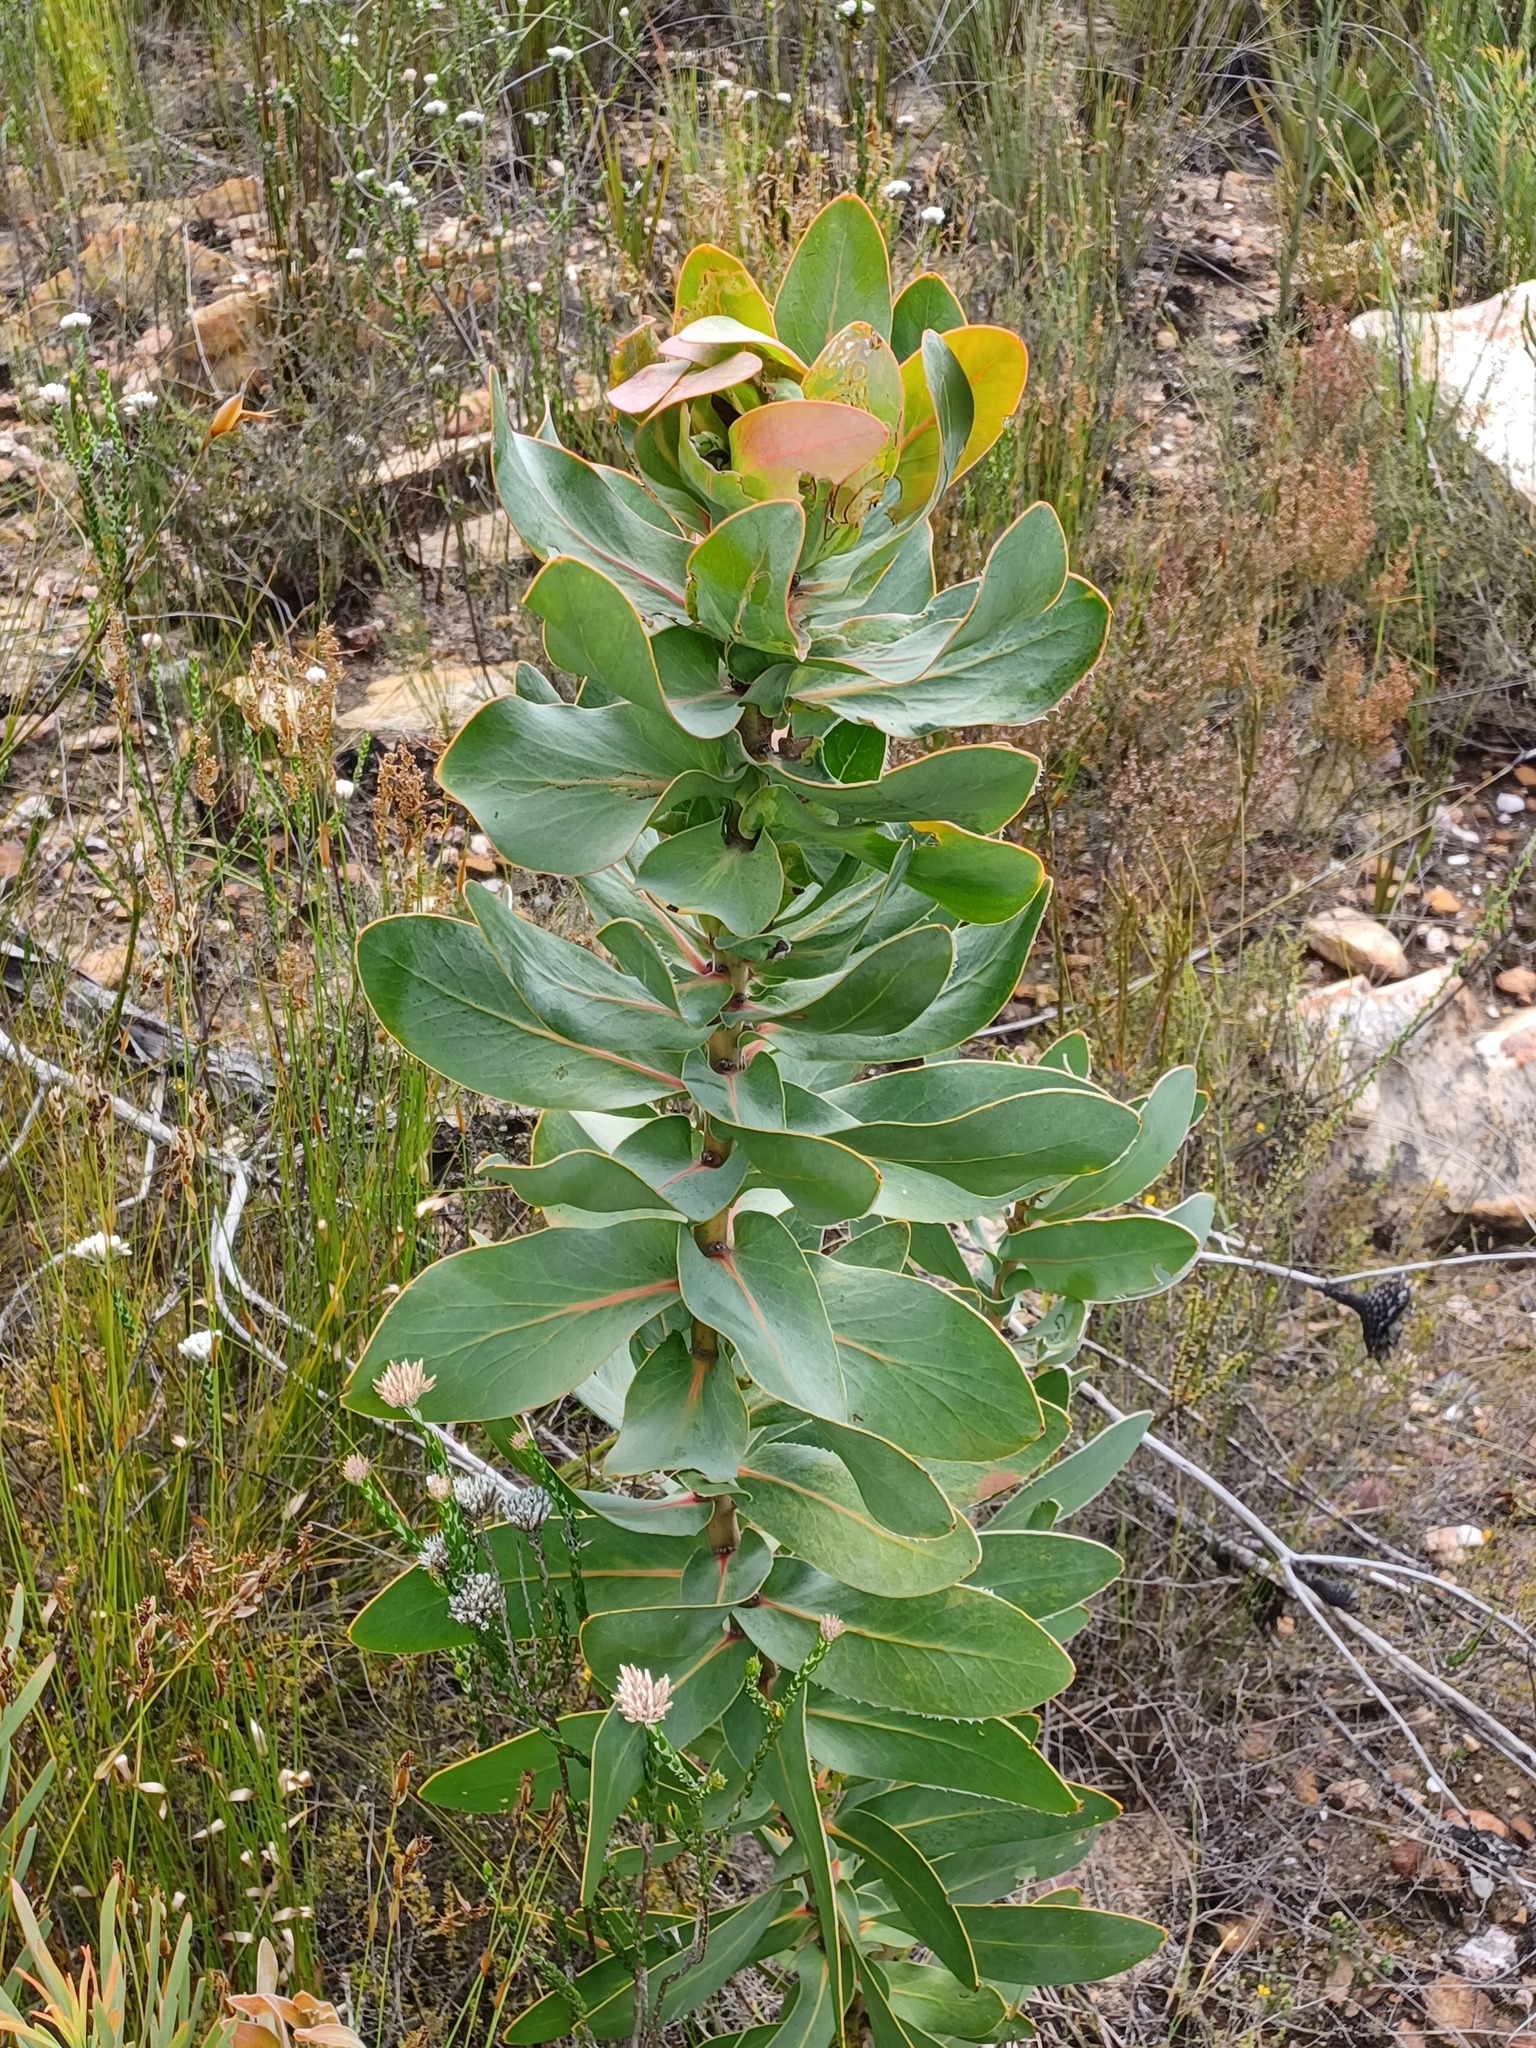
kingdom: Plantae
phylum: Tracheophyta
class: Magnoliopsida
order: Proteales
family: Proteaceae
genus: Protea
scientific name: Protea eximia
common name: Broad-leaved sugarbush
